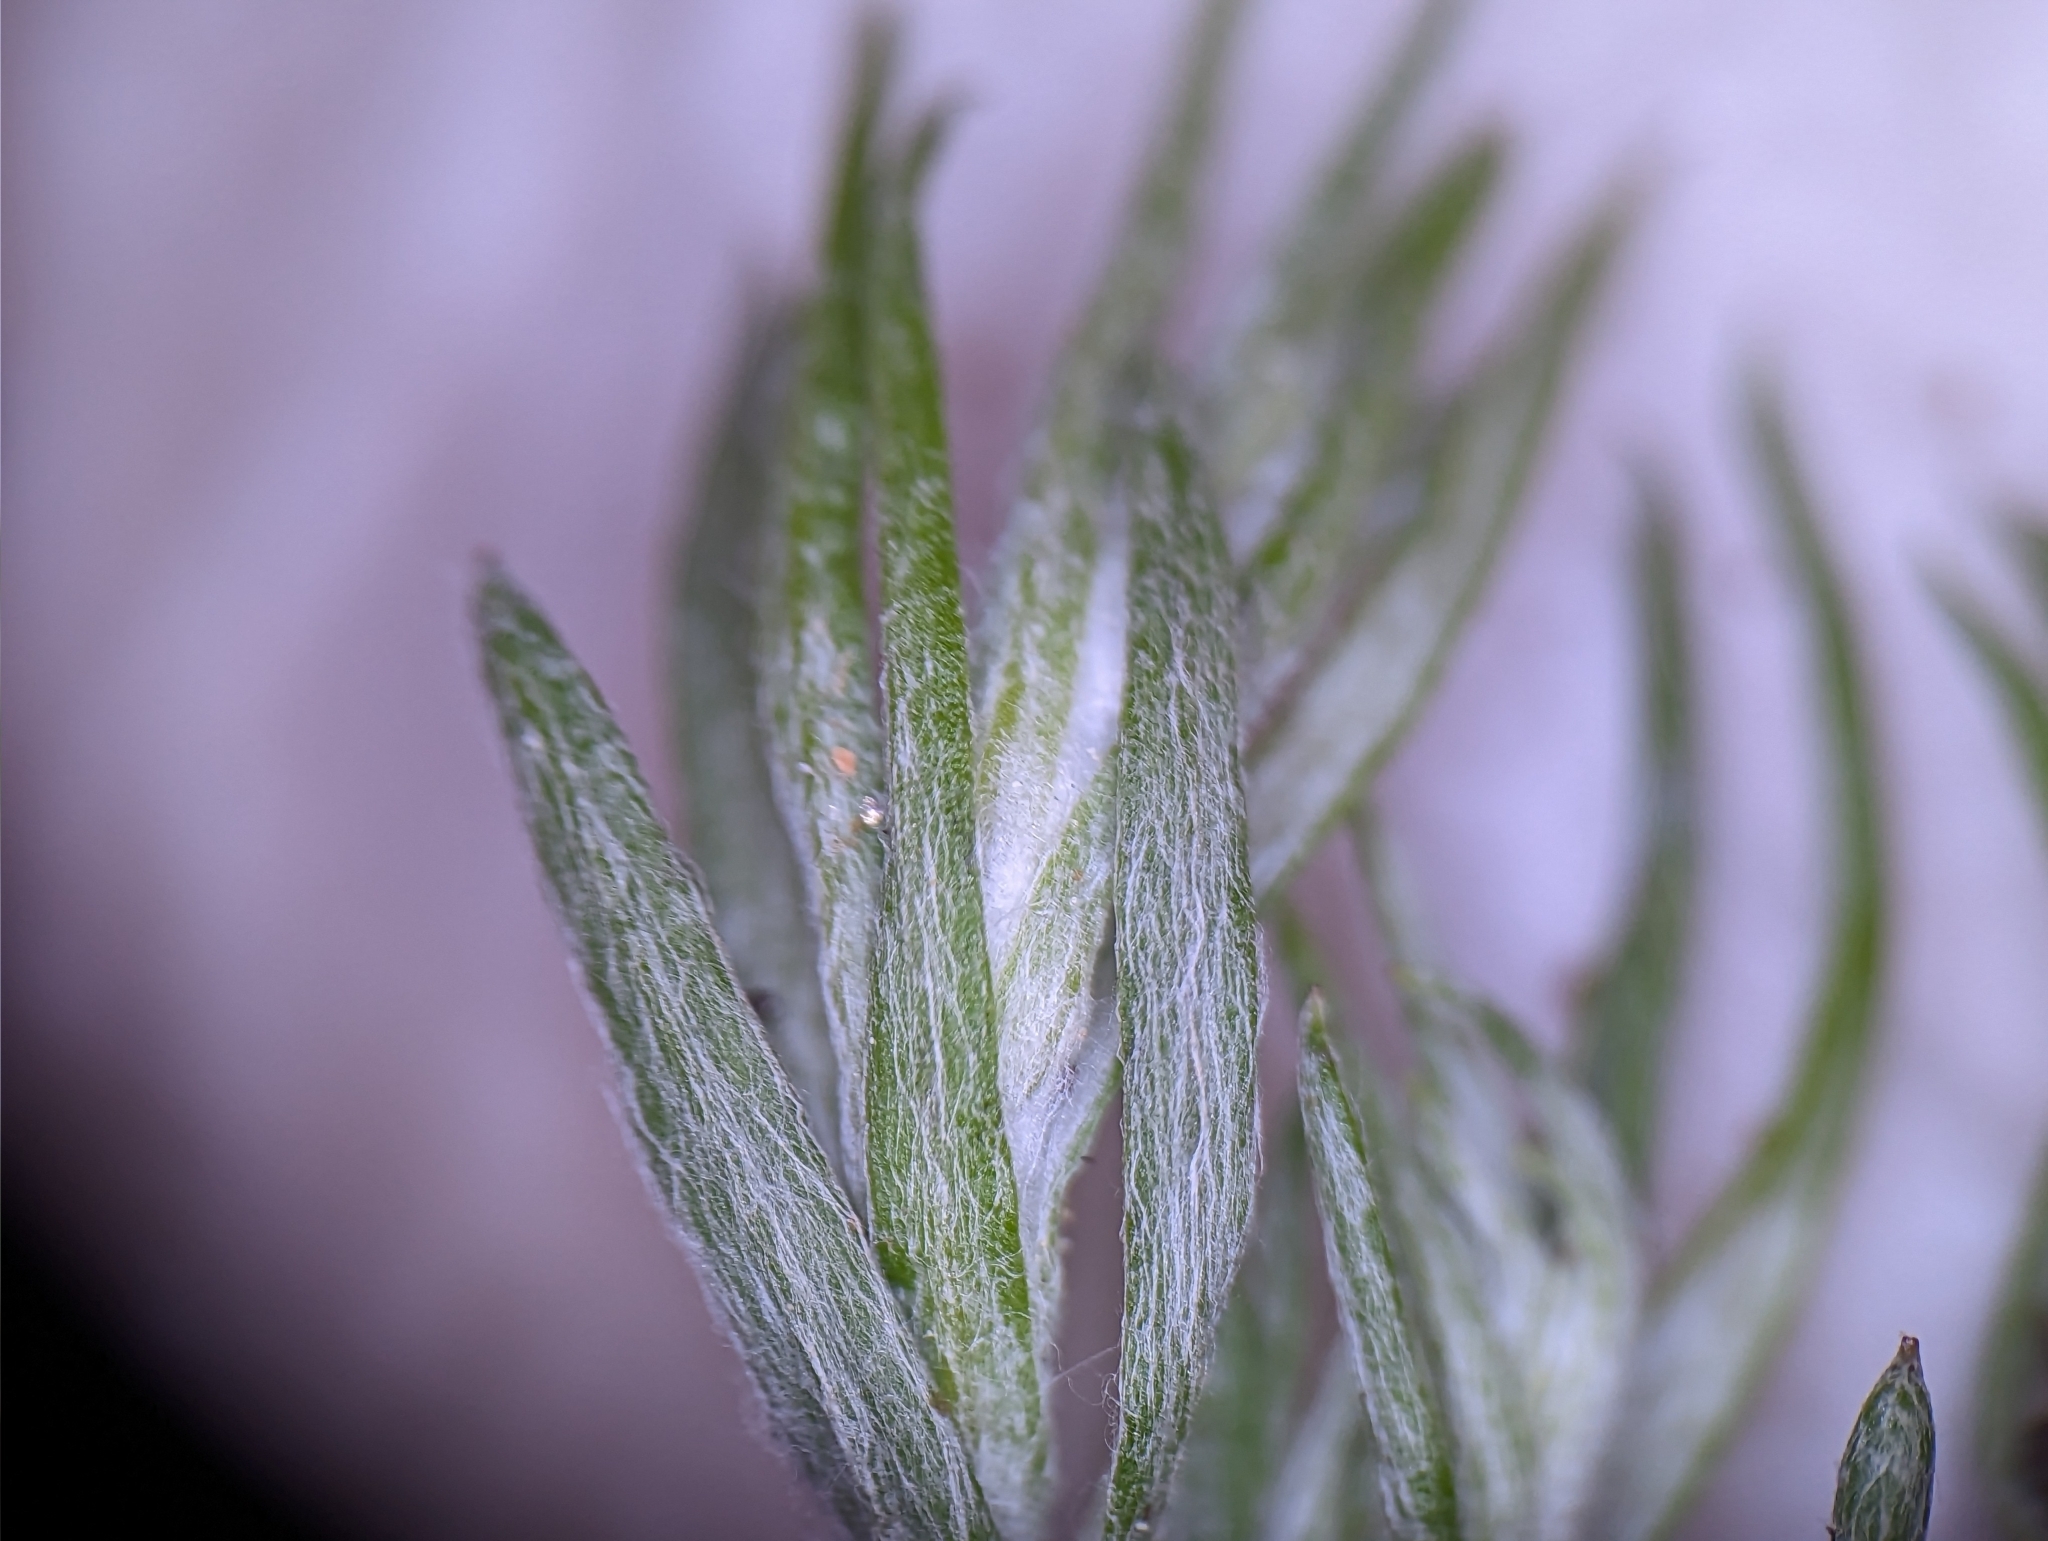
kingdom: Plantae
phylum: Tracheophyta
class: Magnoliopsida
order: Asterales
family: Asteraceae
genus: Logfia
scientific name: Logfia gallica
